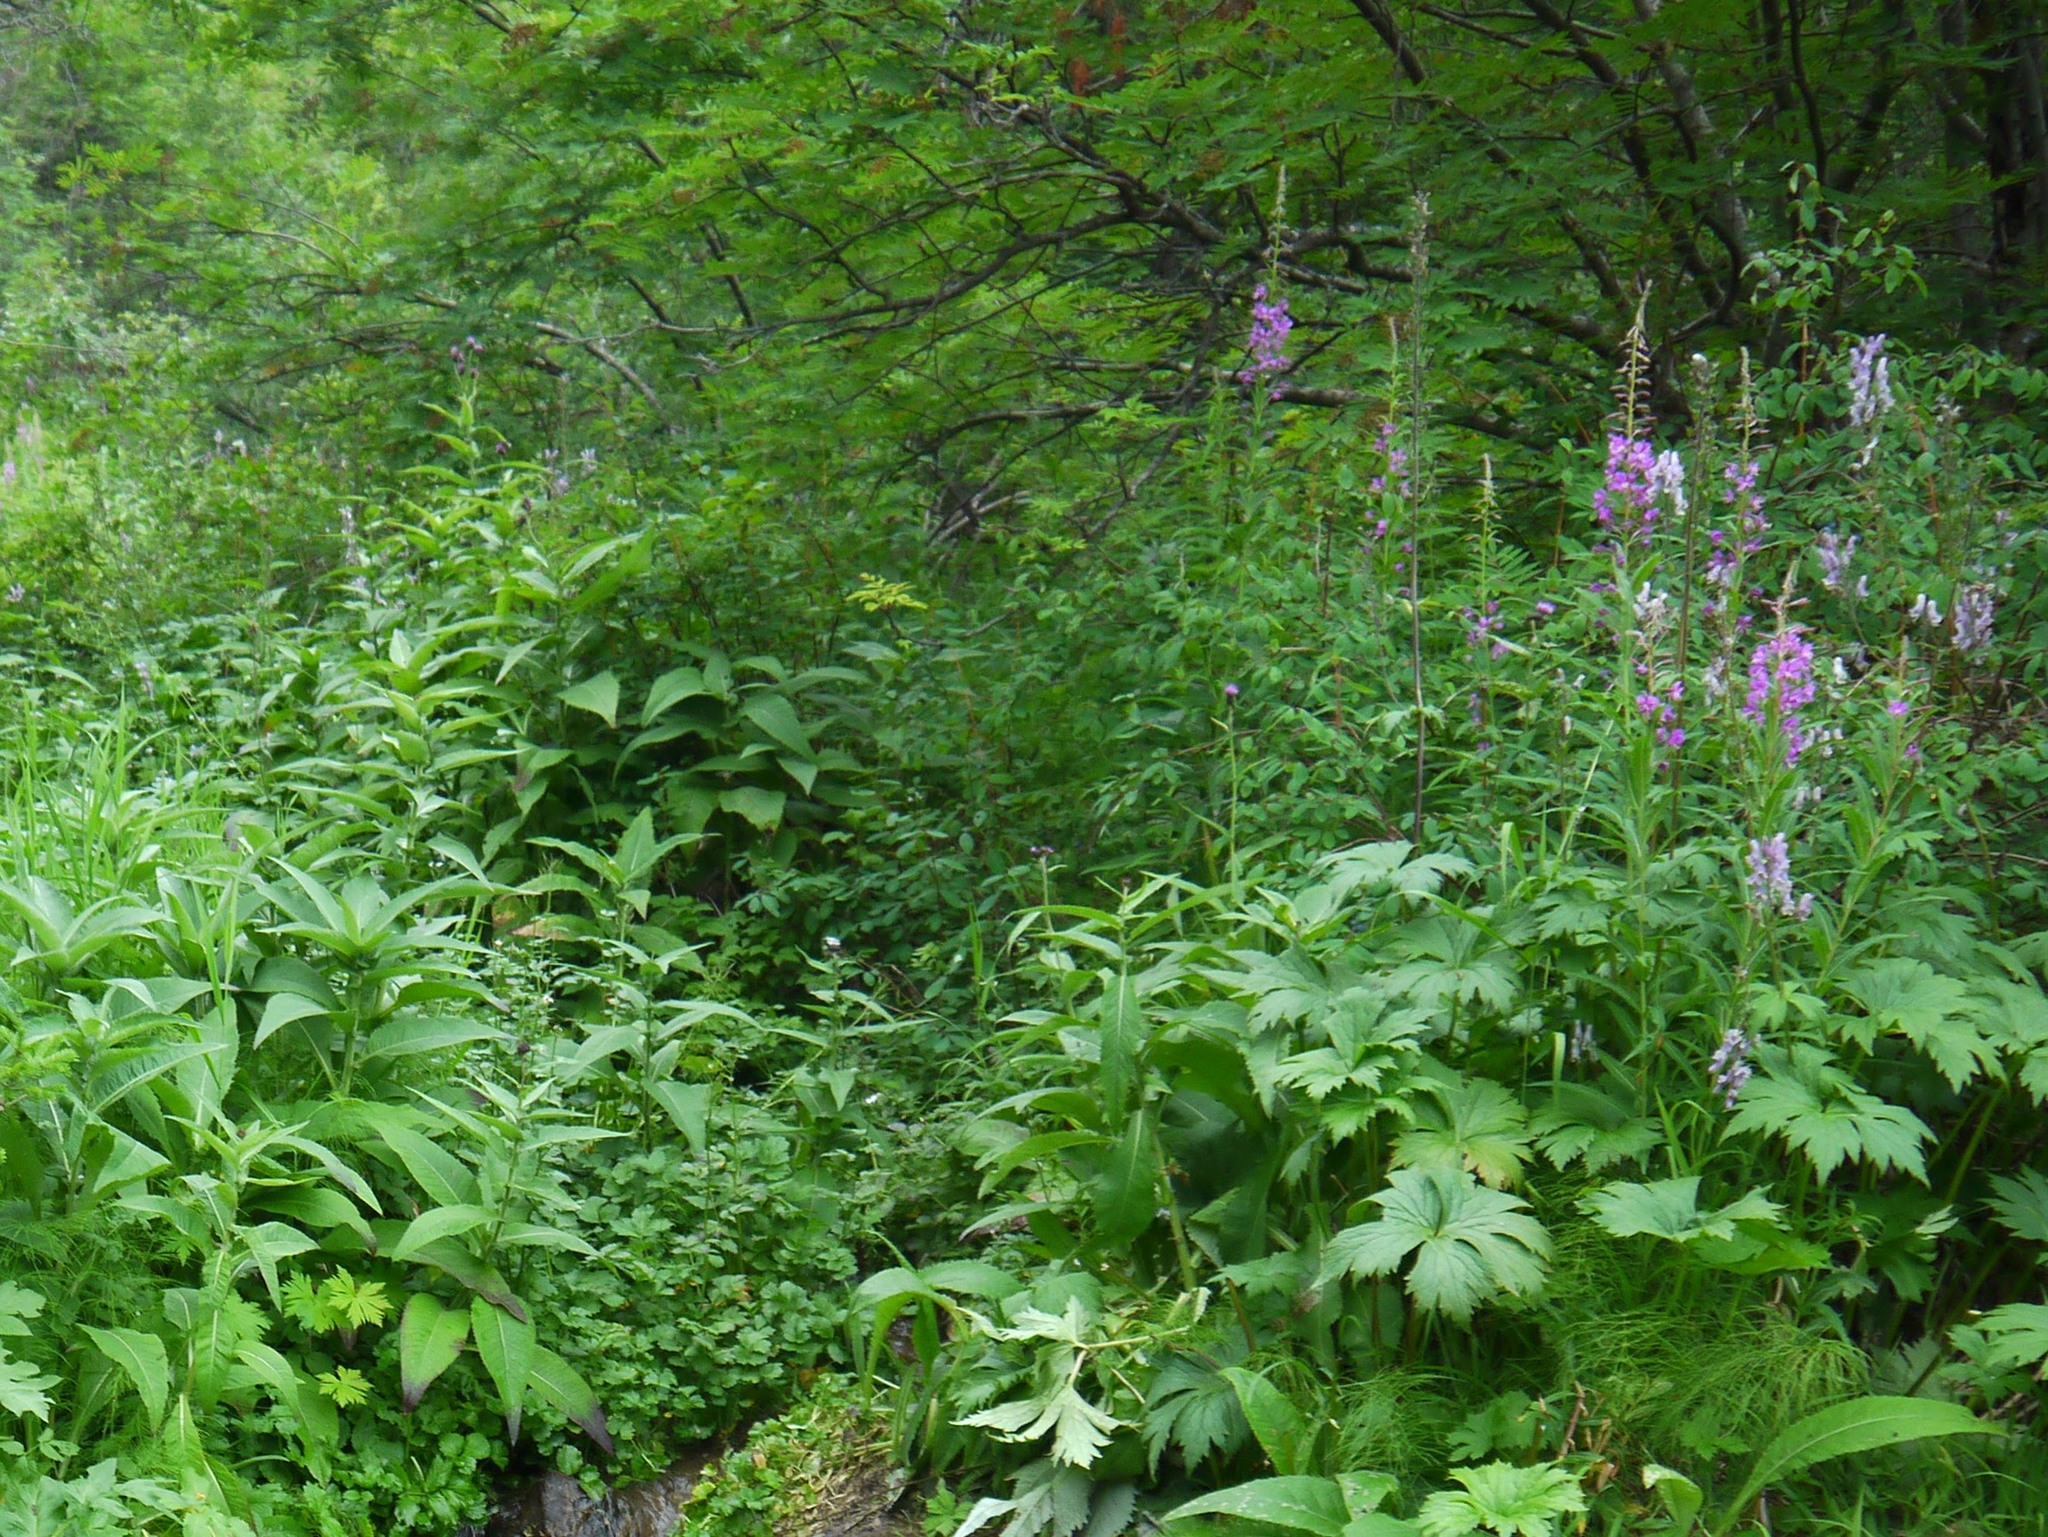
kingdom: Plantae
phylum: Tracheophyta
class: Magnoliopsida
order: Myrtales
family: Onagraceae
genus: Chamaenerion
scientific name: Chamaenerion angustifolium
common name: Fireweed
